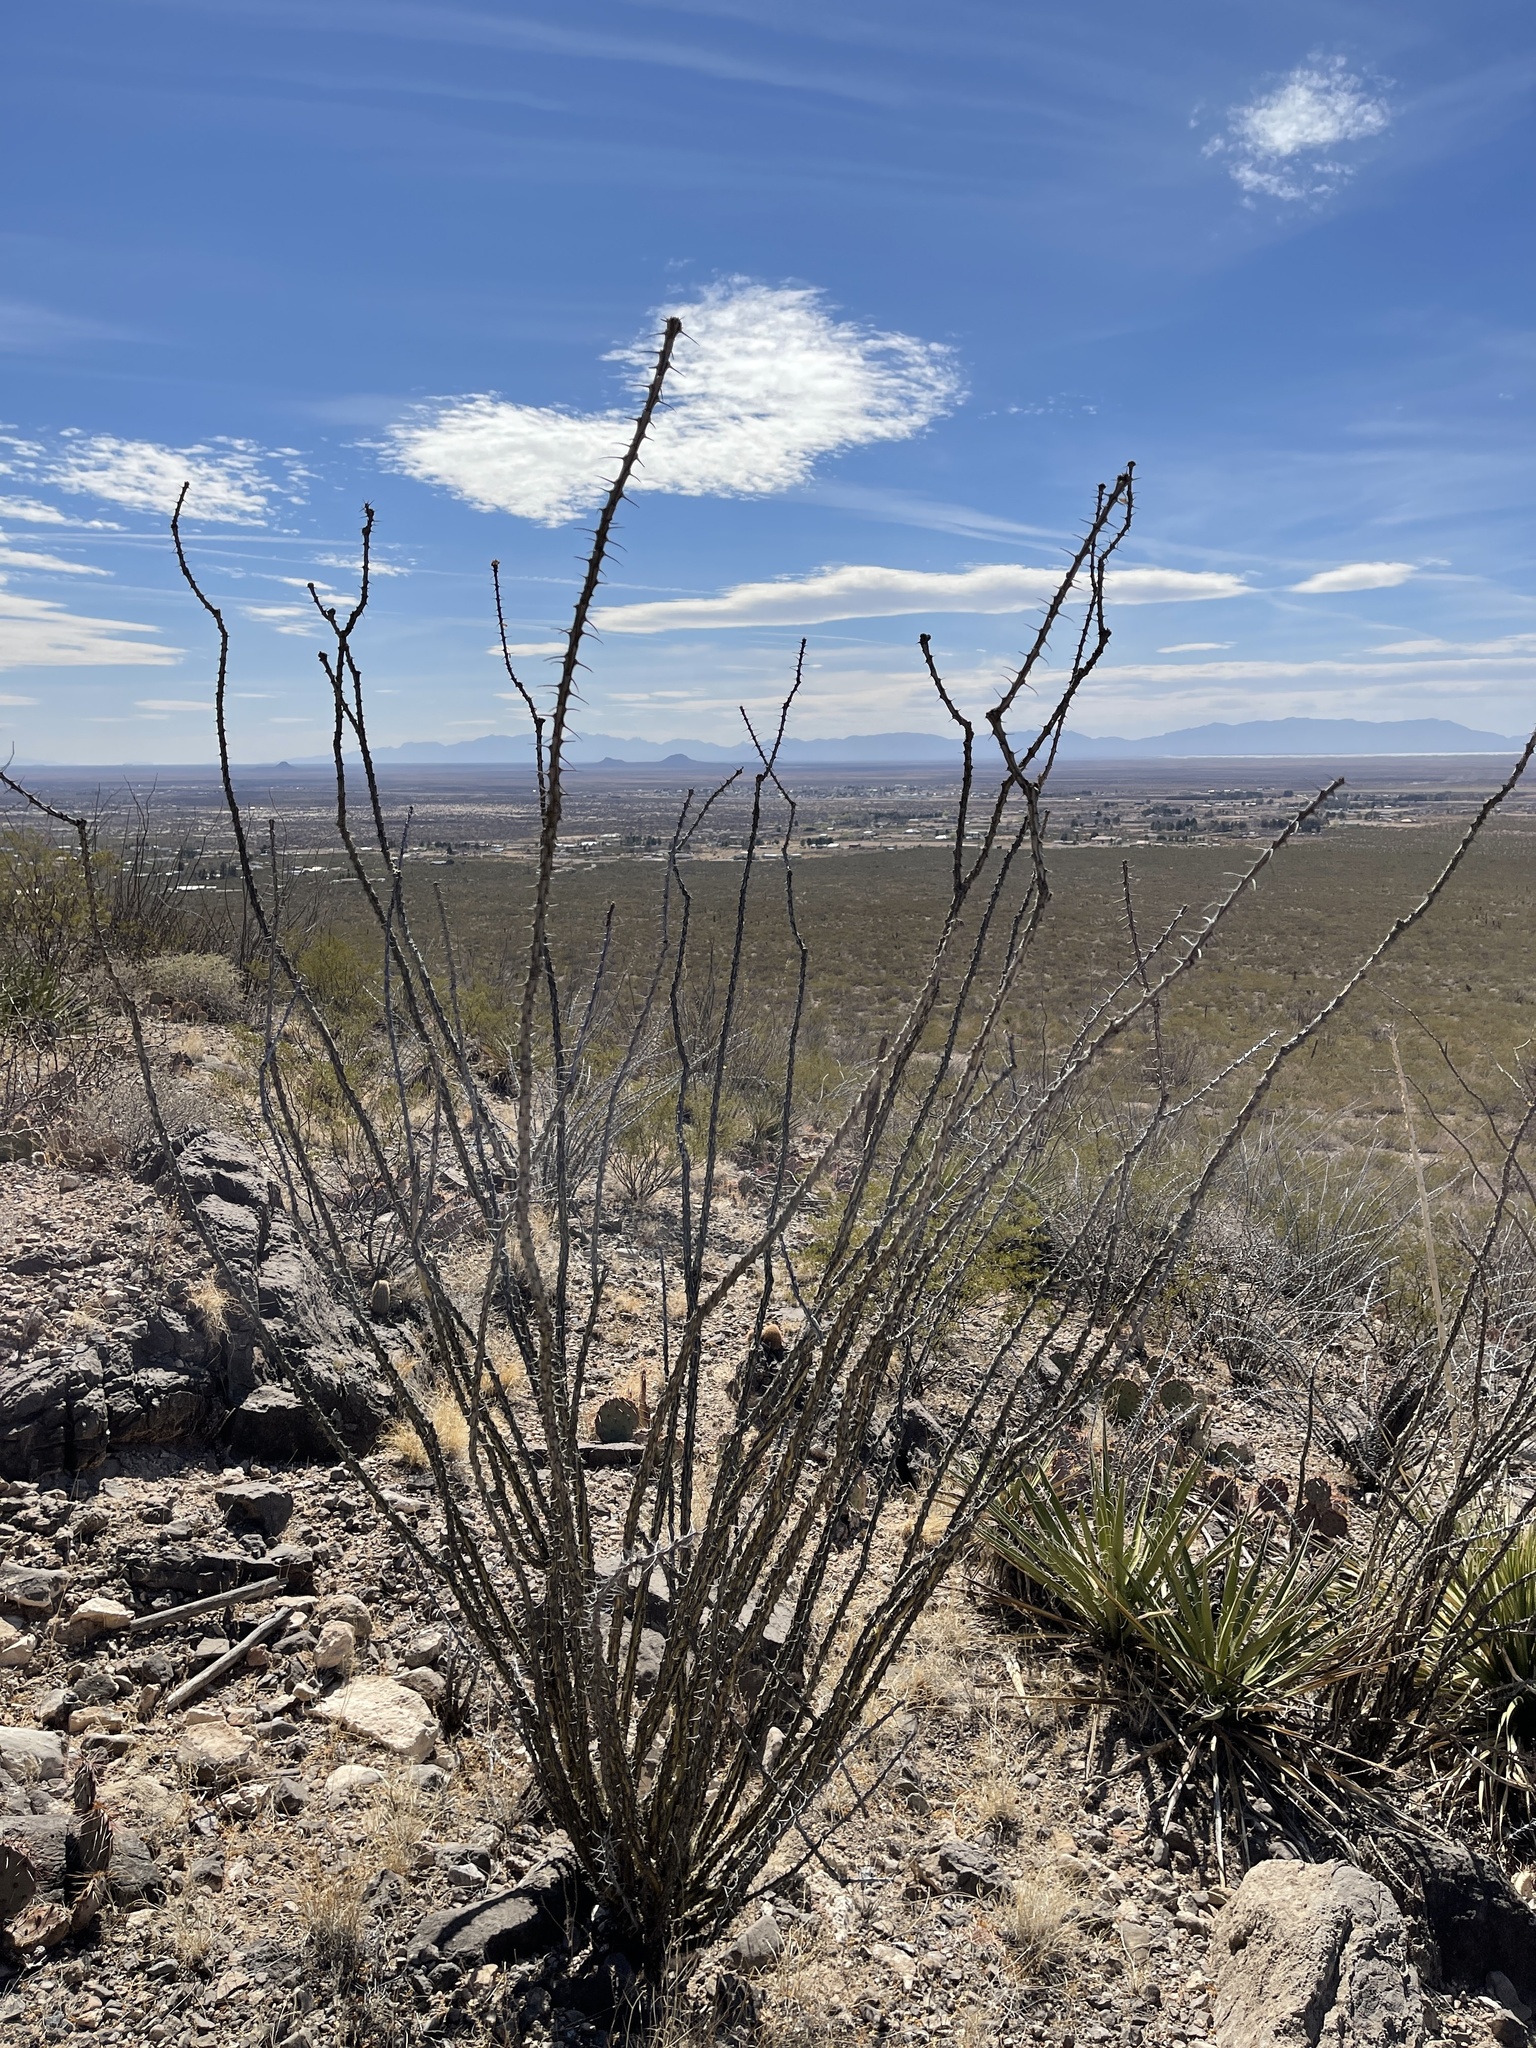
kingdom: Plantae
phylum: Tracheophyta
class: Magnoliopsida
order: Ericales
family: Fouquieriaceae
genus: Fouquieria
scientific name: Fouquieria splendens
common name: Vine-cactus
